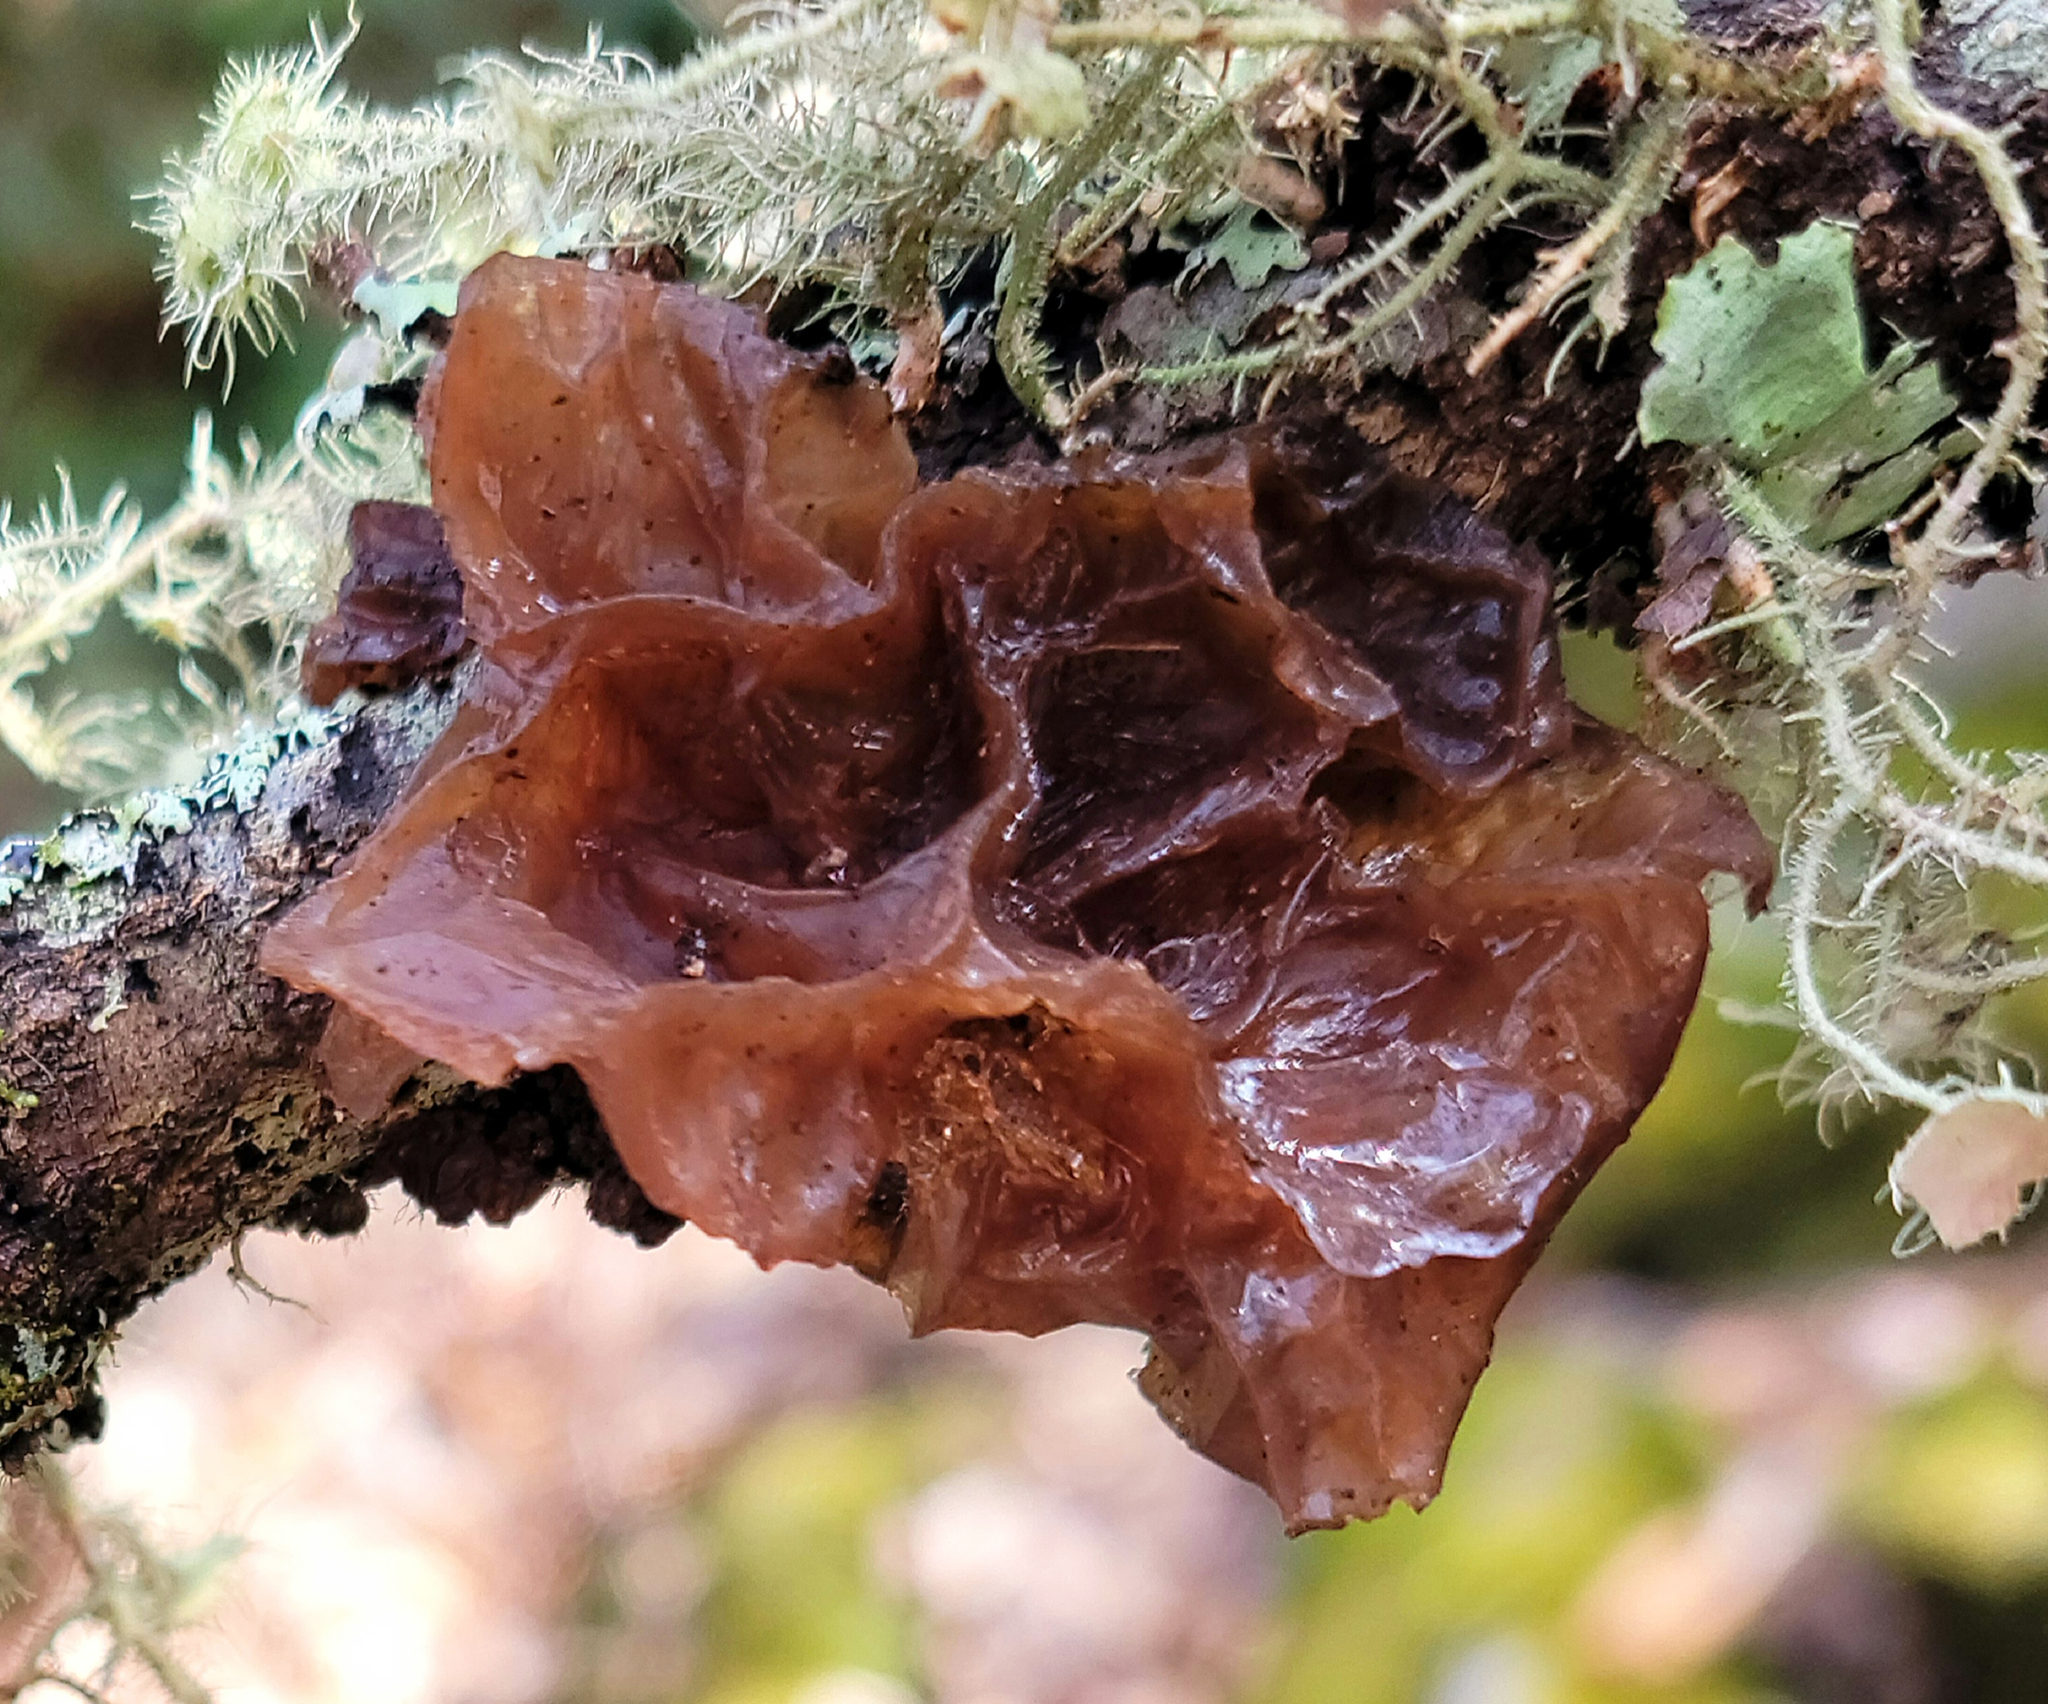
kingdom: Fungi
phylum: Basidiomycota
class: Tremellomycetes
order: Tremellales
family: Tremellaceae
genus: Phaeotremella
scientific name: Phaeotremella foliacea
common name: Leafy brain
